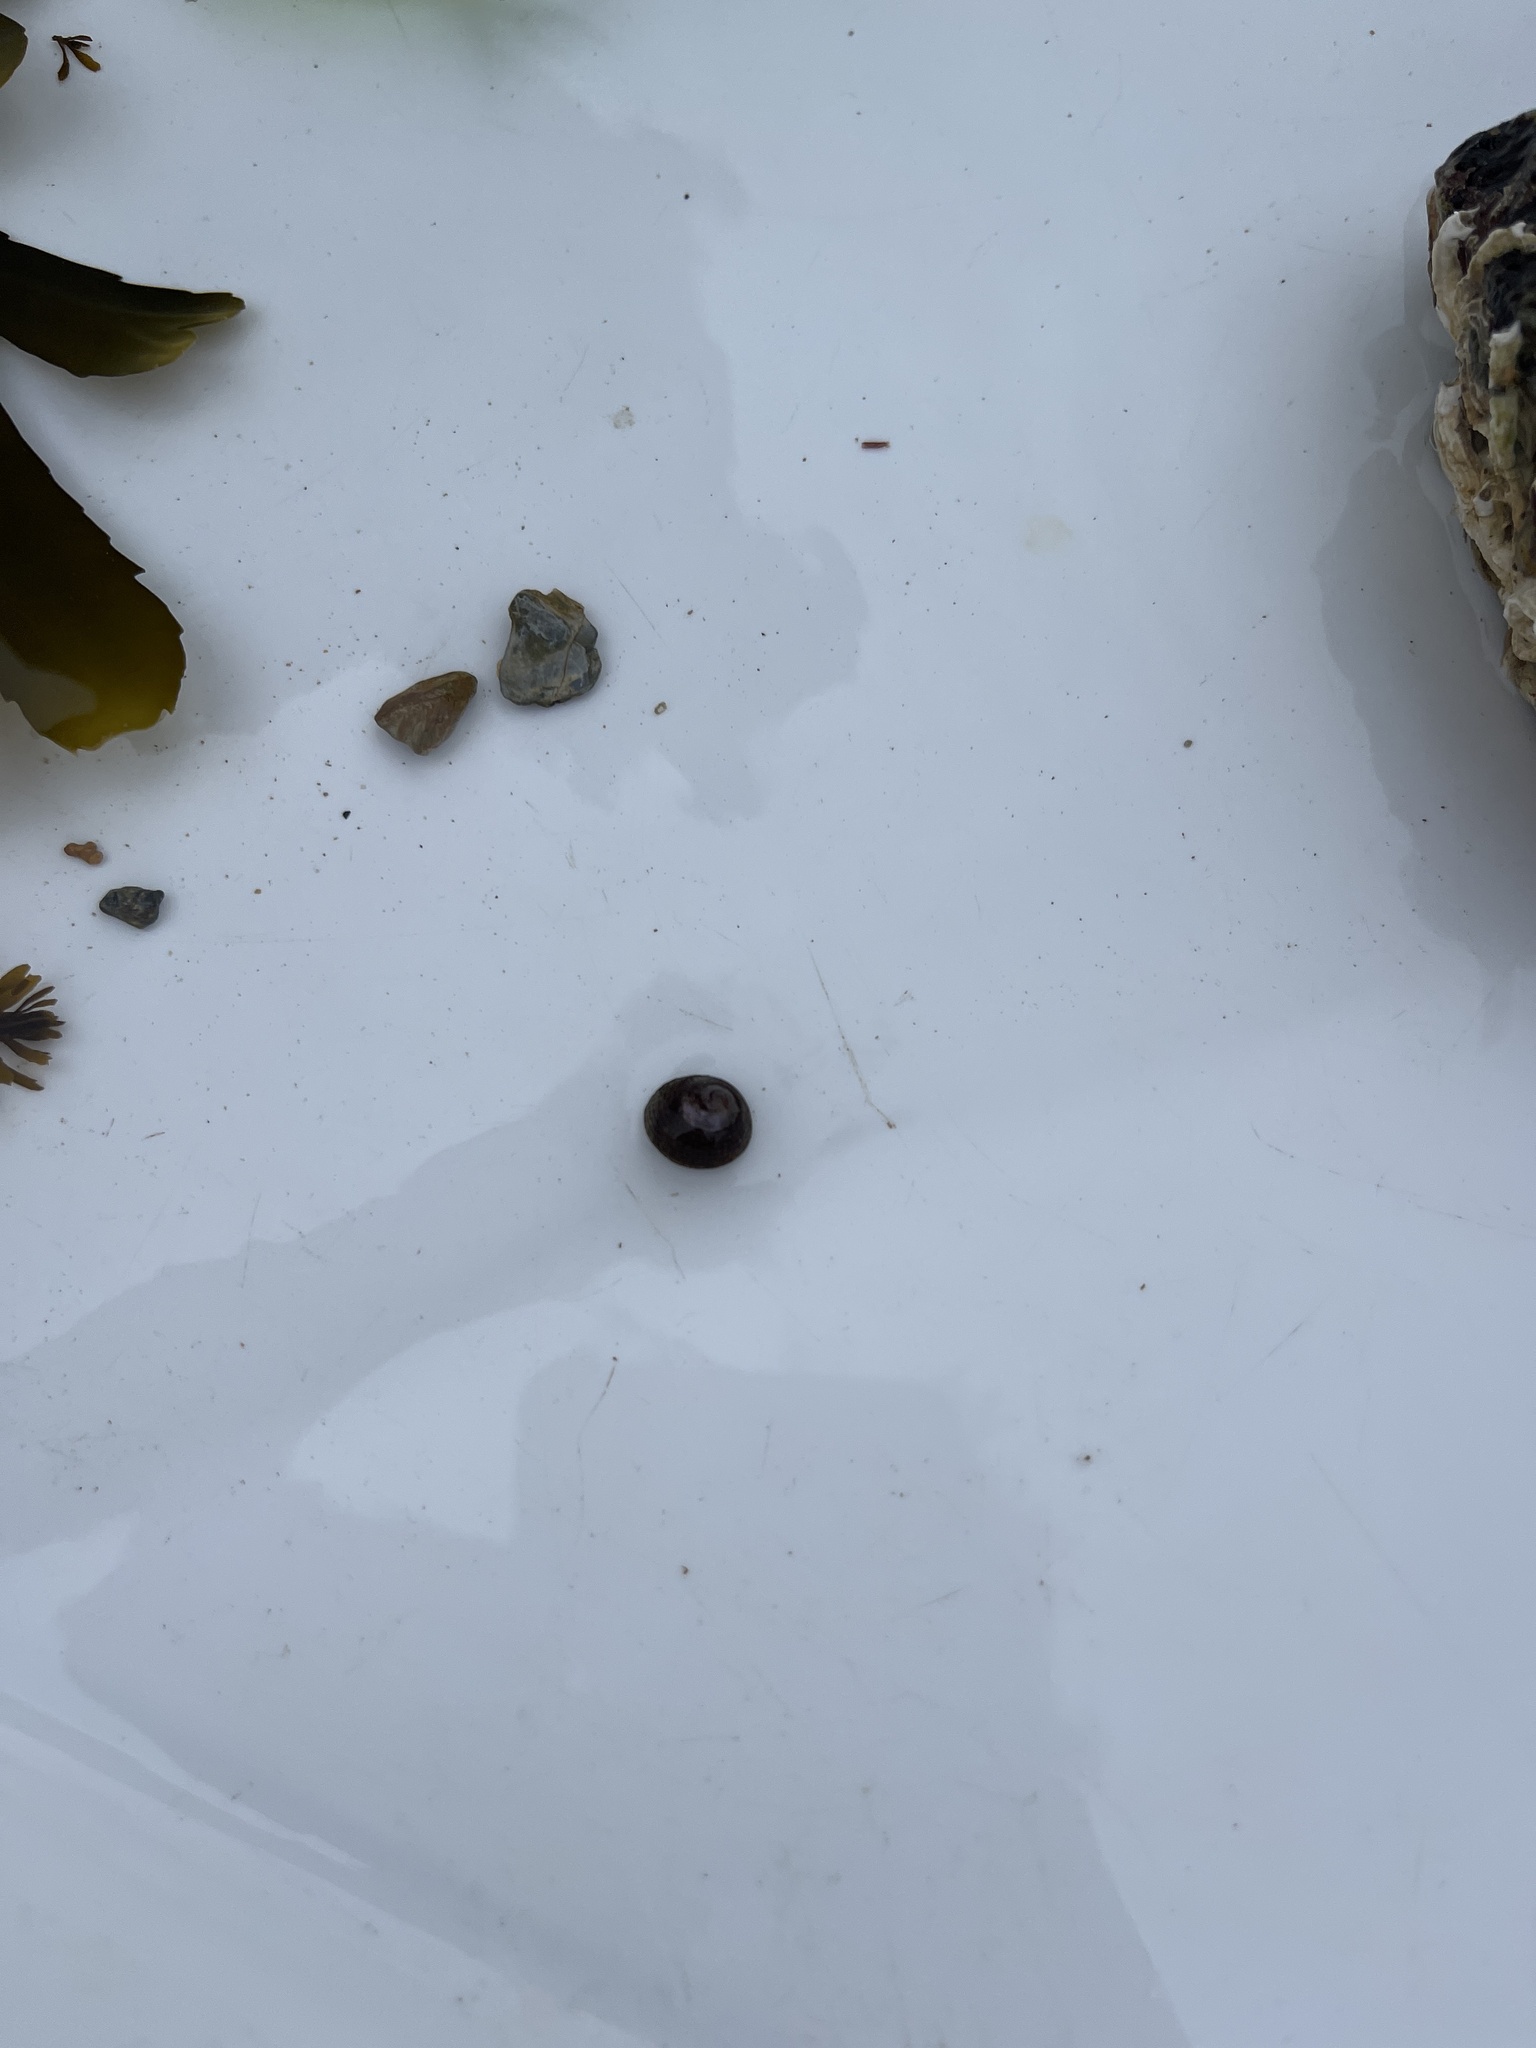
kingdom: Animalia
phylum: Mollusca
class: Gastropoda
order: Trochida
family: Trochidae
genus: Steromphala
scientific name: Steromphala umbilicalis
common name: Flat top shell
